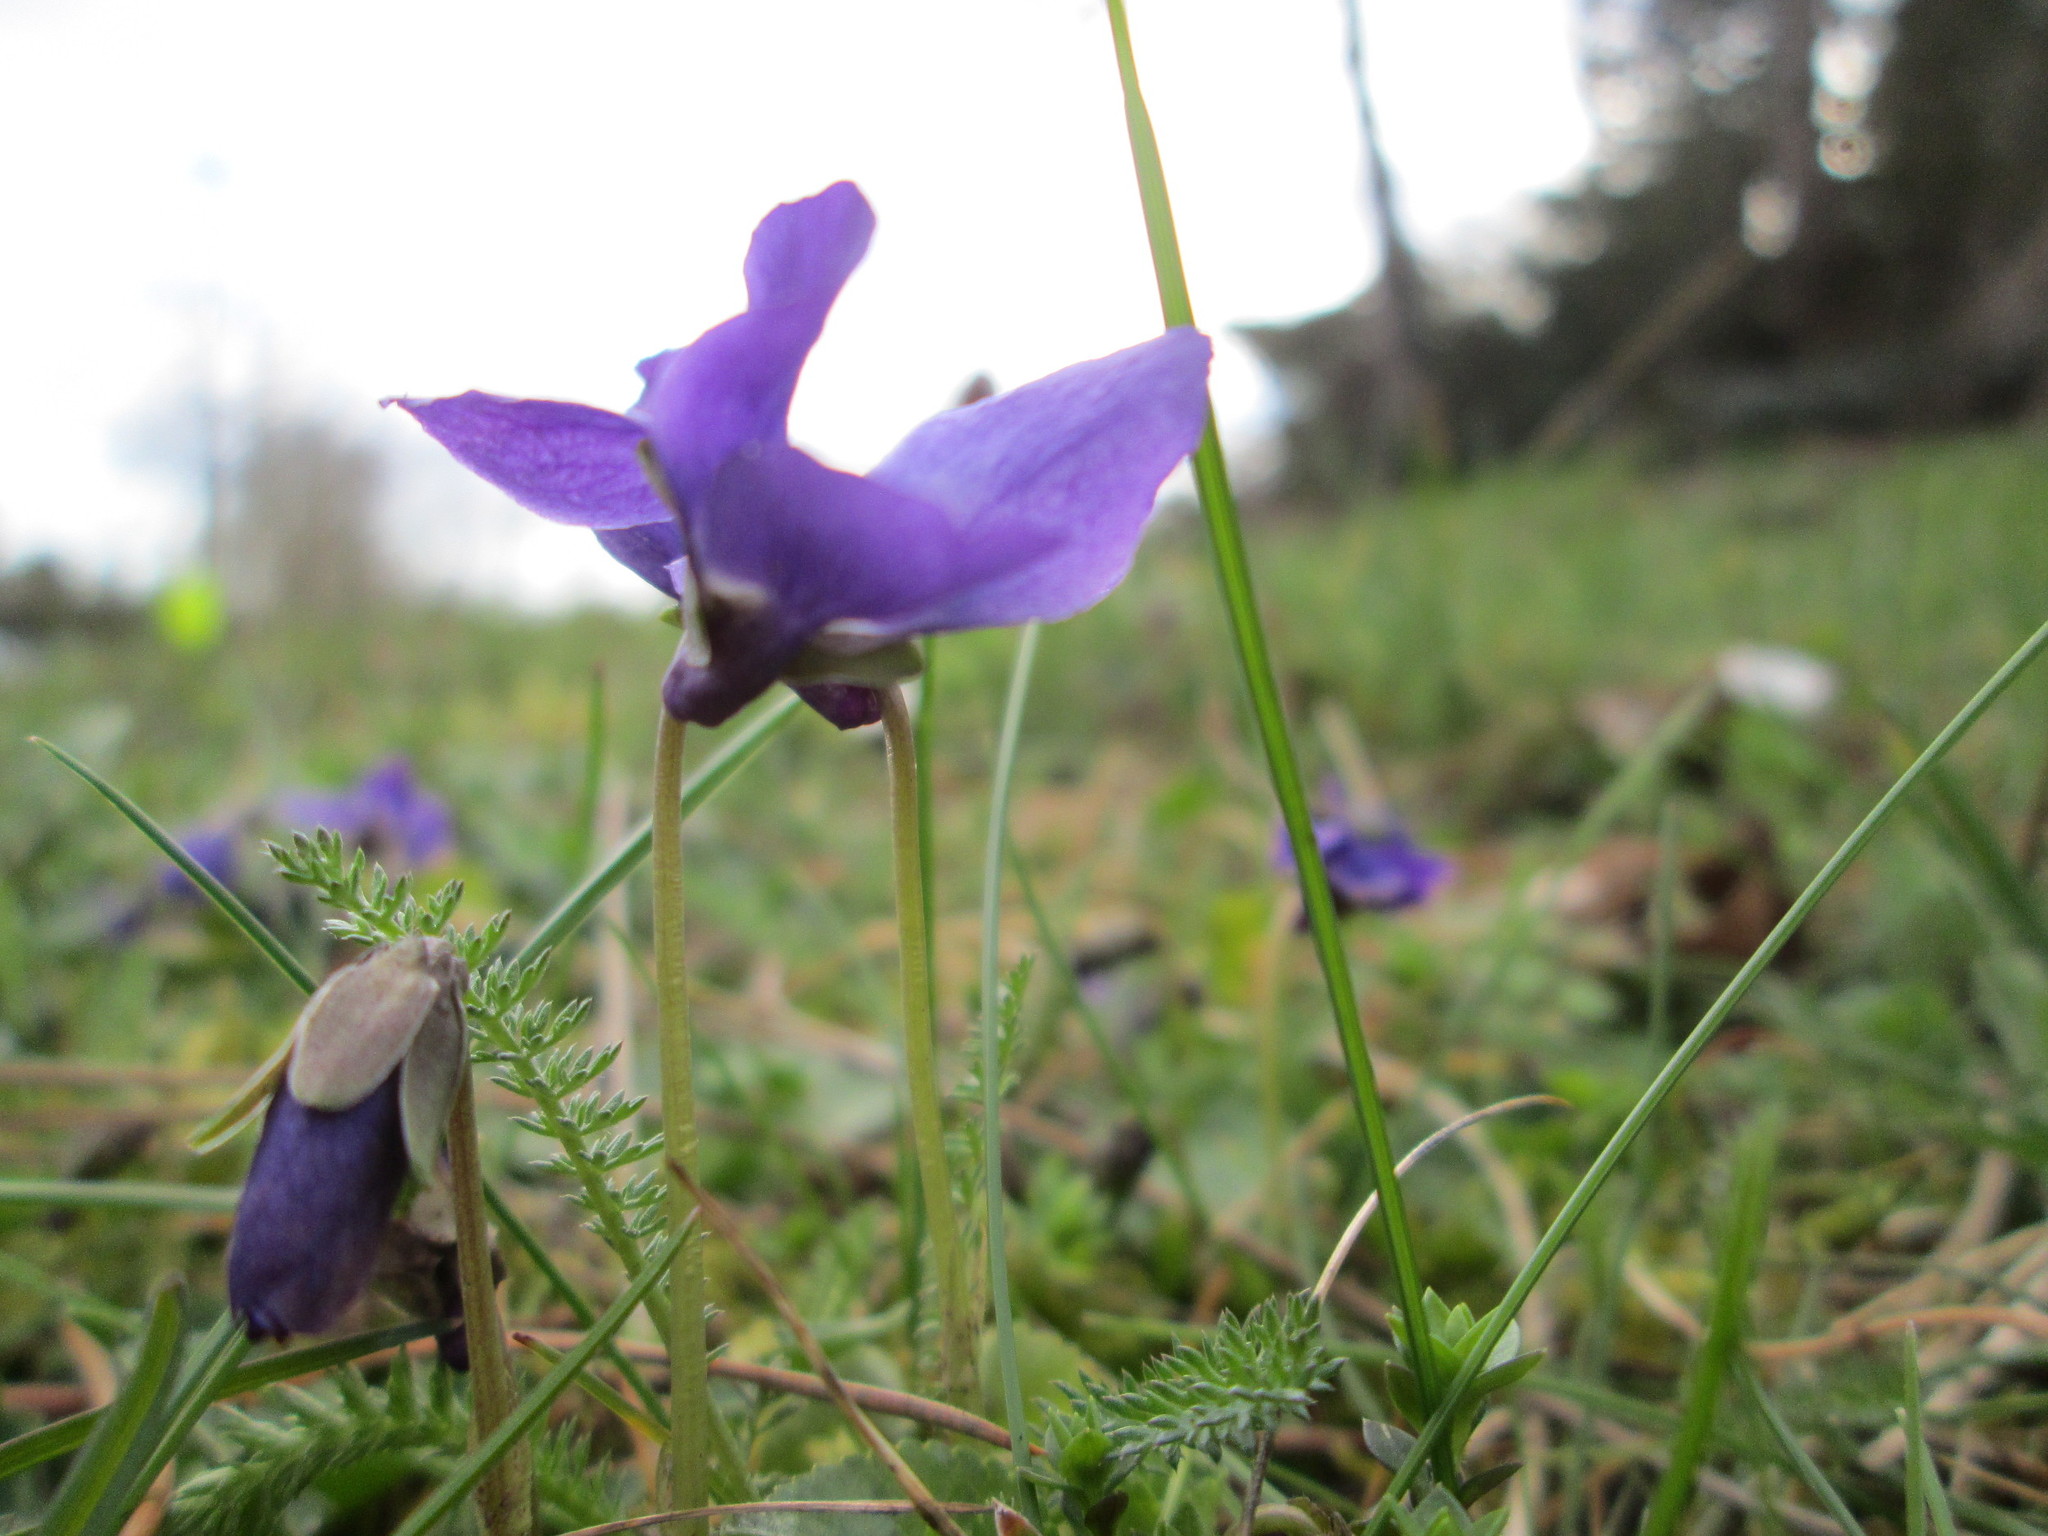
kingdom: Plantae
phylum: Tracheophyta
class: Magnoliopsida
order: Malpighiales
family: Violaceae
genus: Viola
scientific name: Viola odorata
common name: Sweet violet
